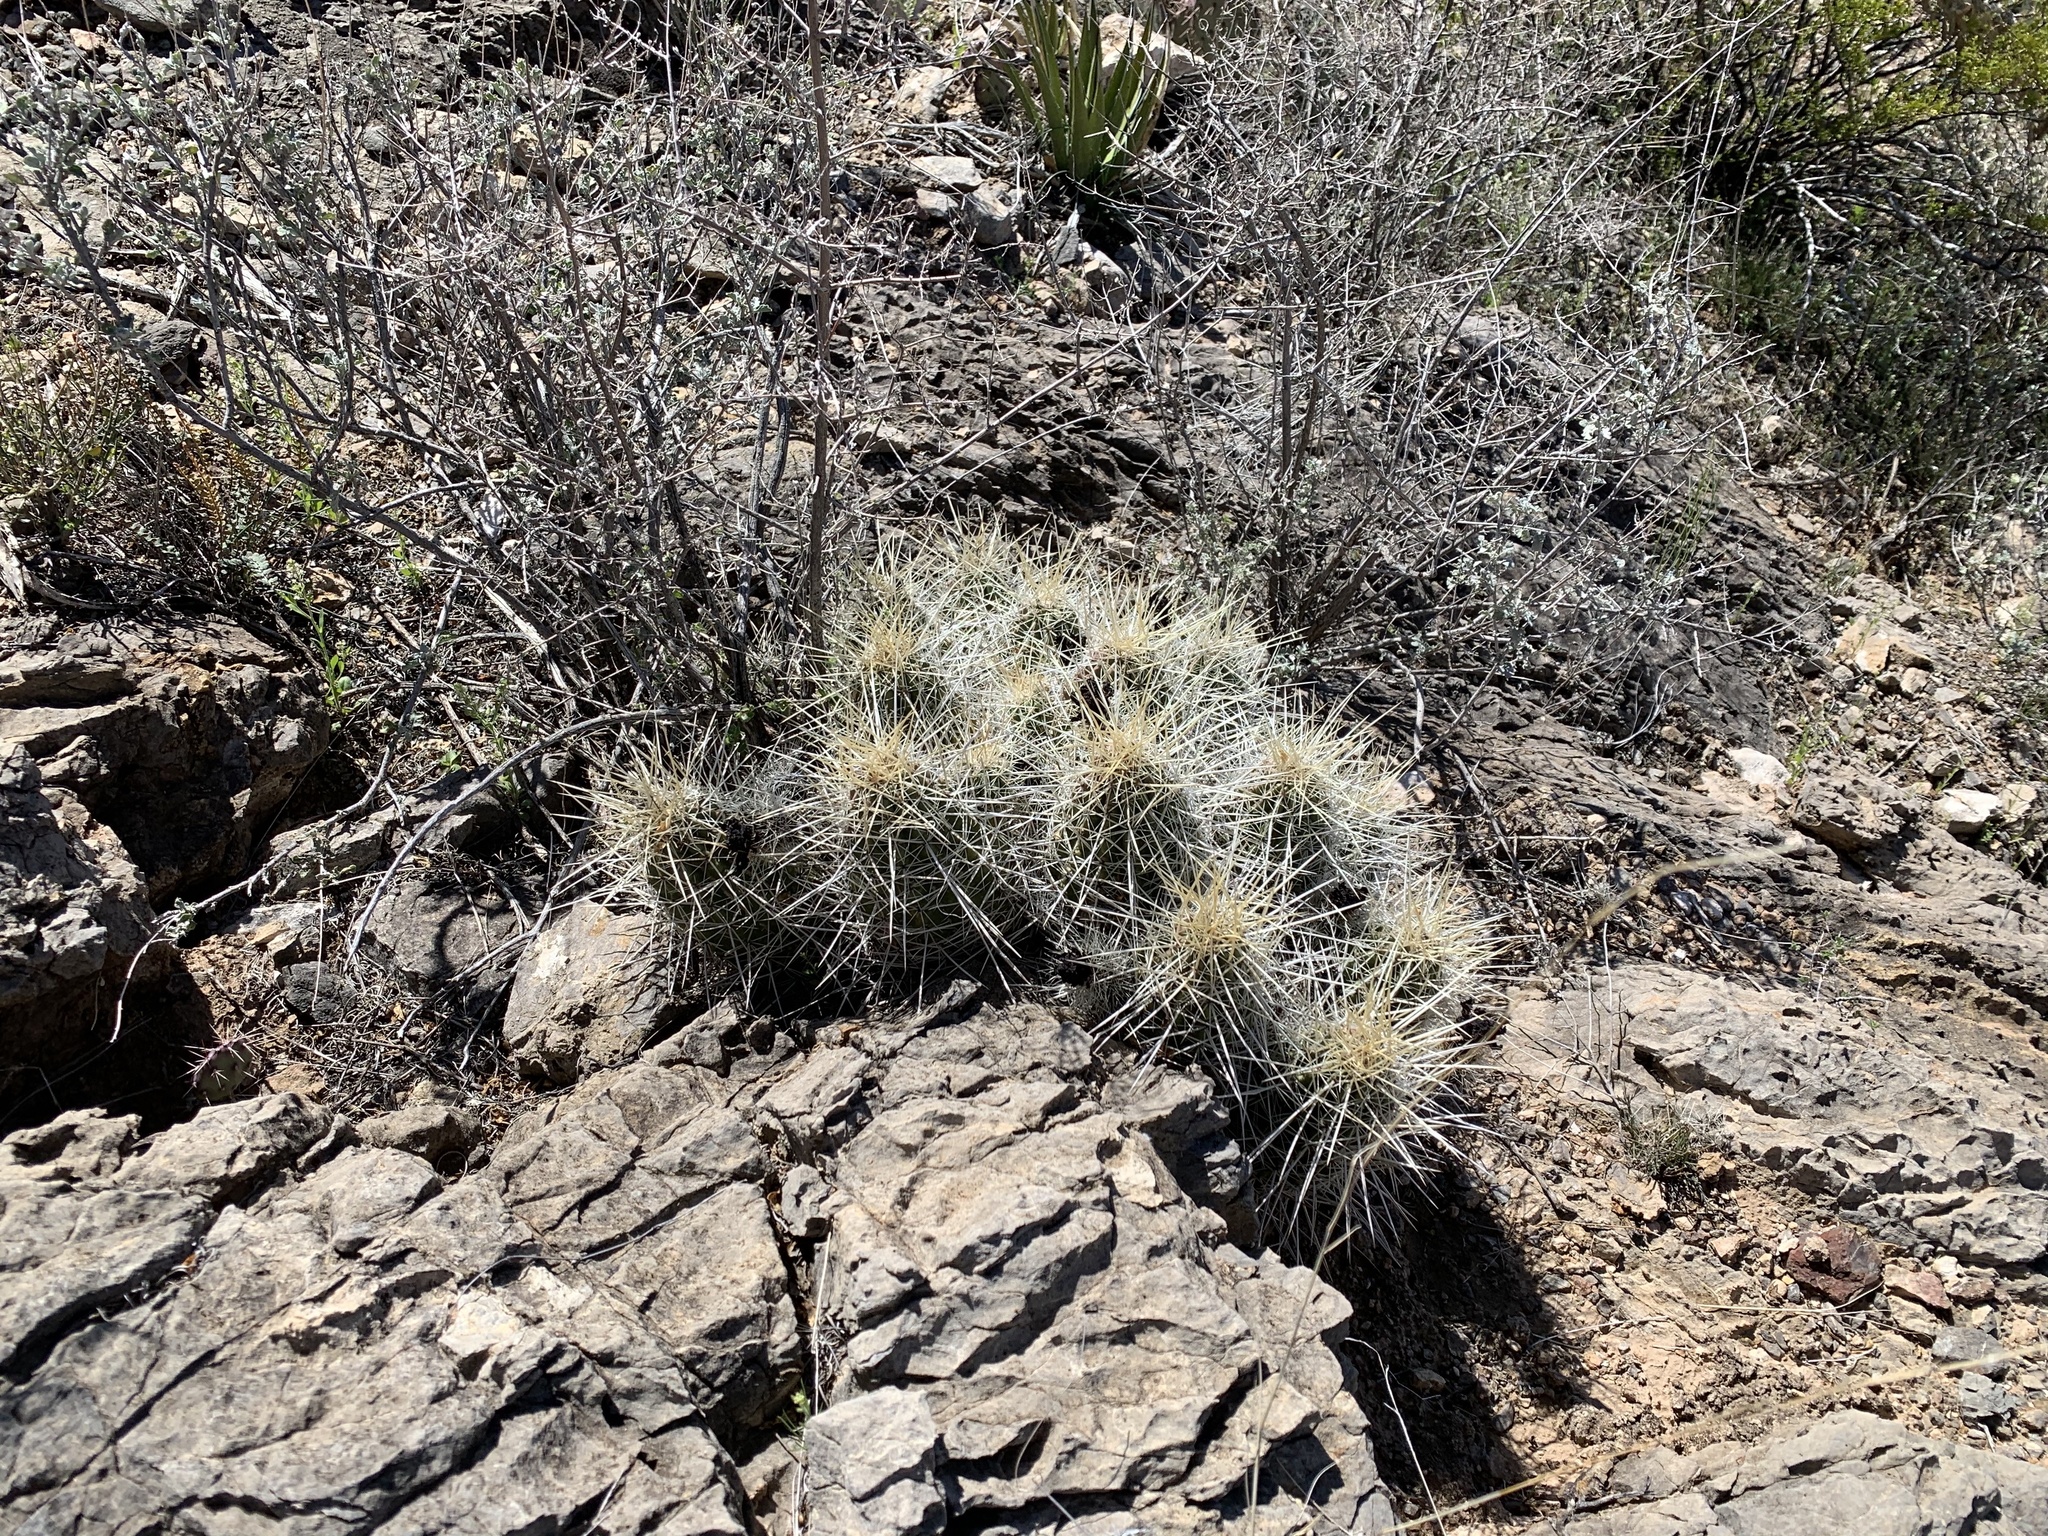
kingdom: Plantae
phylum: Tracheophyta
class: Magnoliopsida
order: Caryophyllales
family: Cactaceae
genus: Echinocereus
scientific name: Echinocereus stramineus
